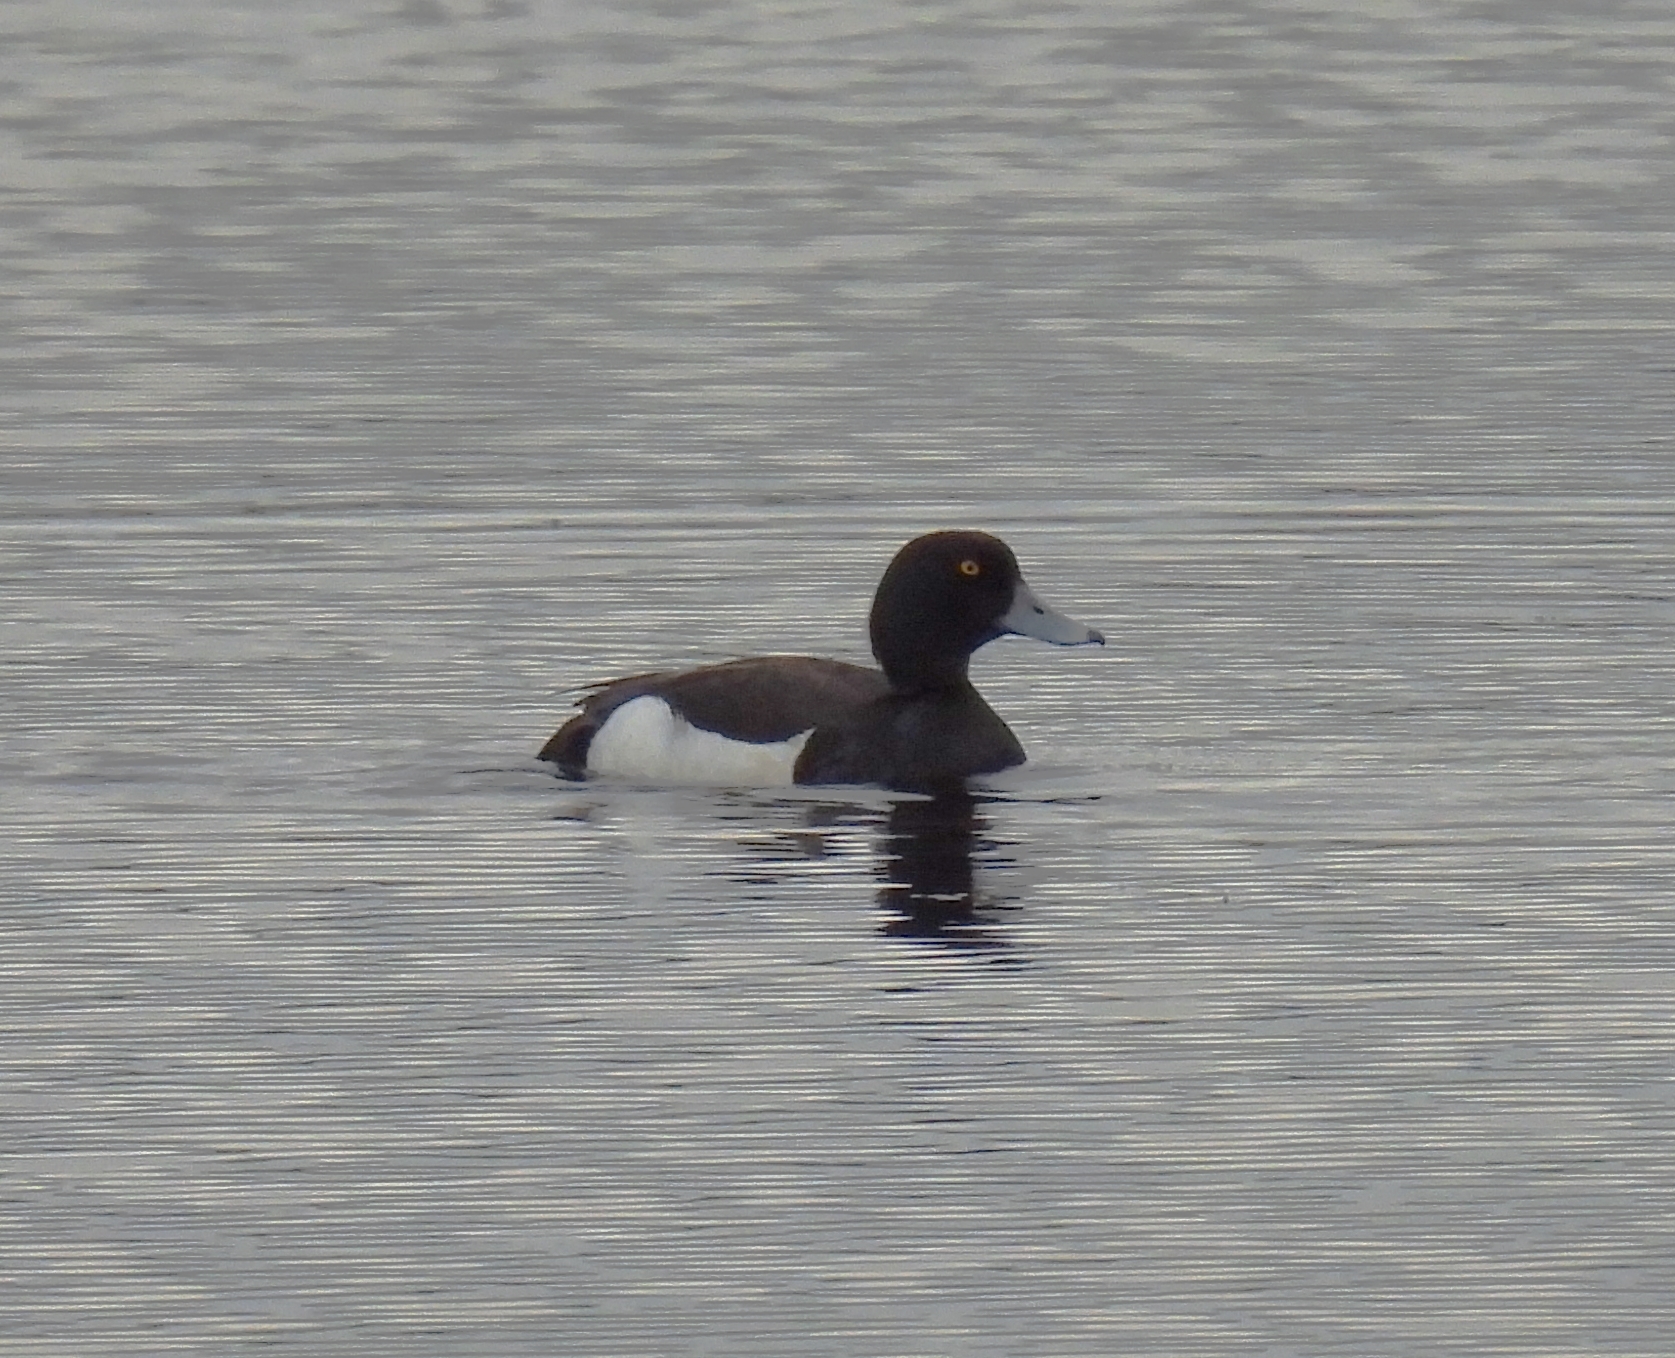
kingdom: Animalia
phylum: Chordata
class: Aves
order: Anseriformes
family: Anatidae
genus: Aythya
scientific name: Aythya fuligula
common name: Tufted duck
